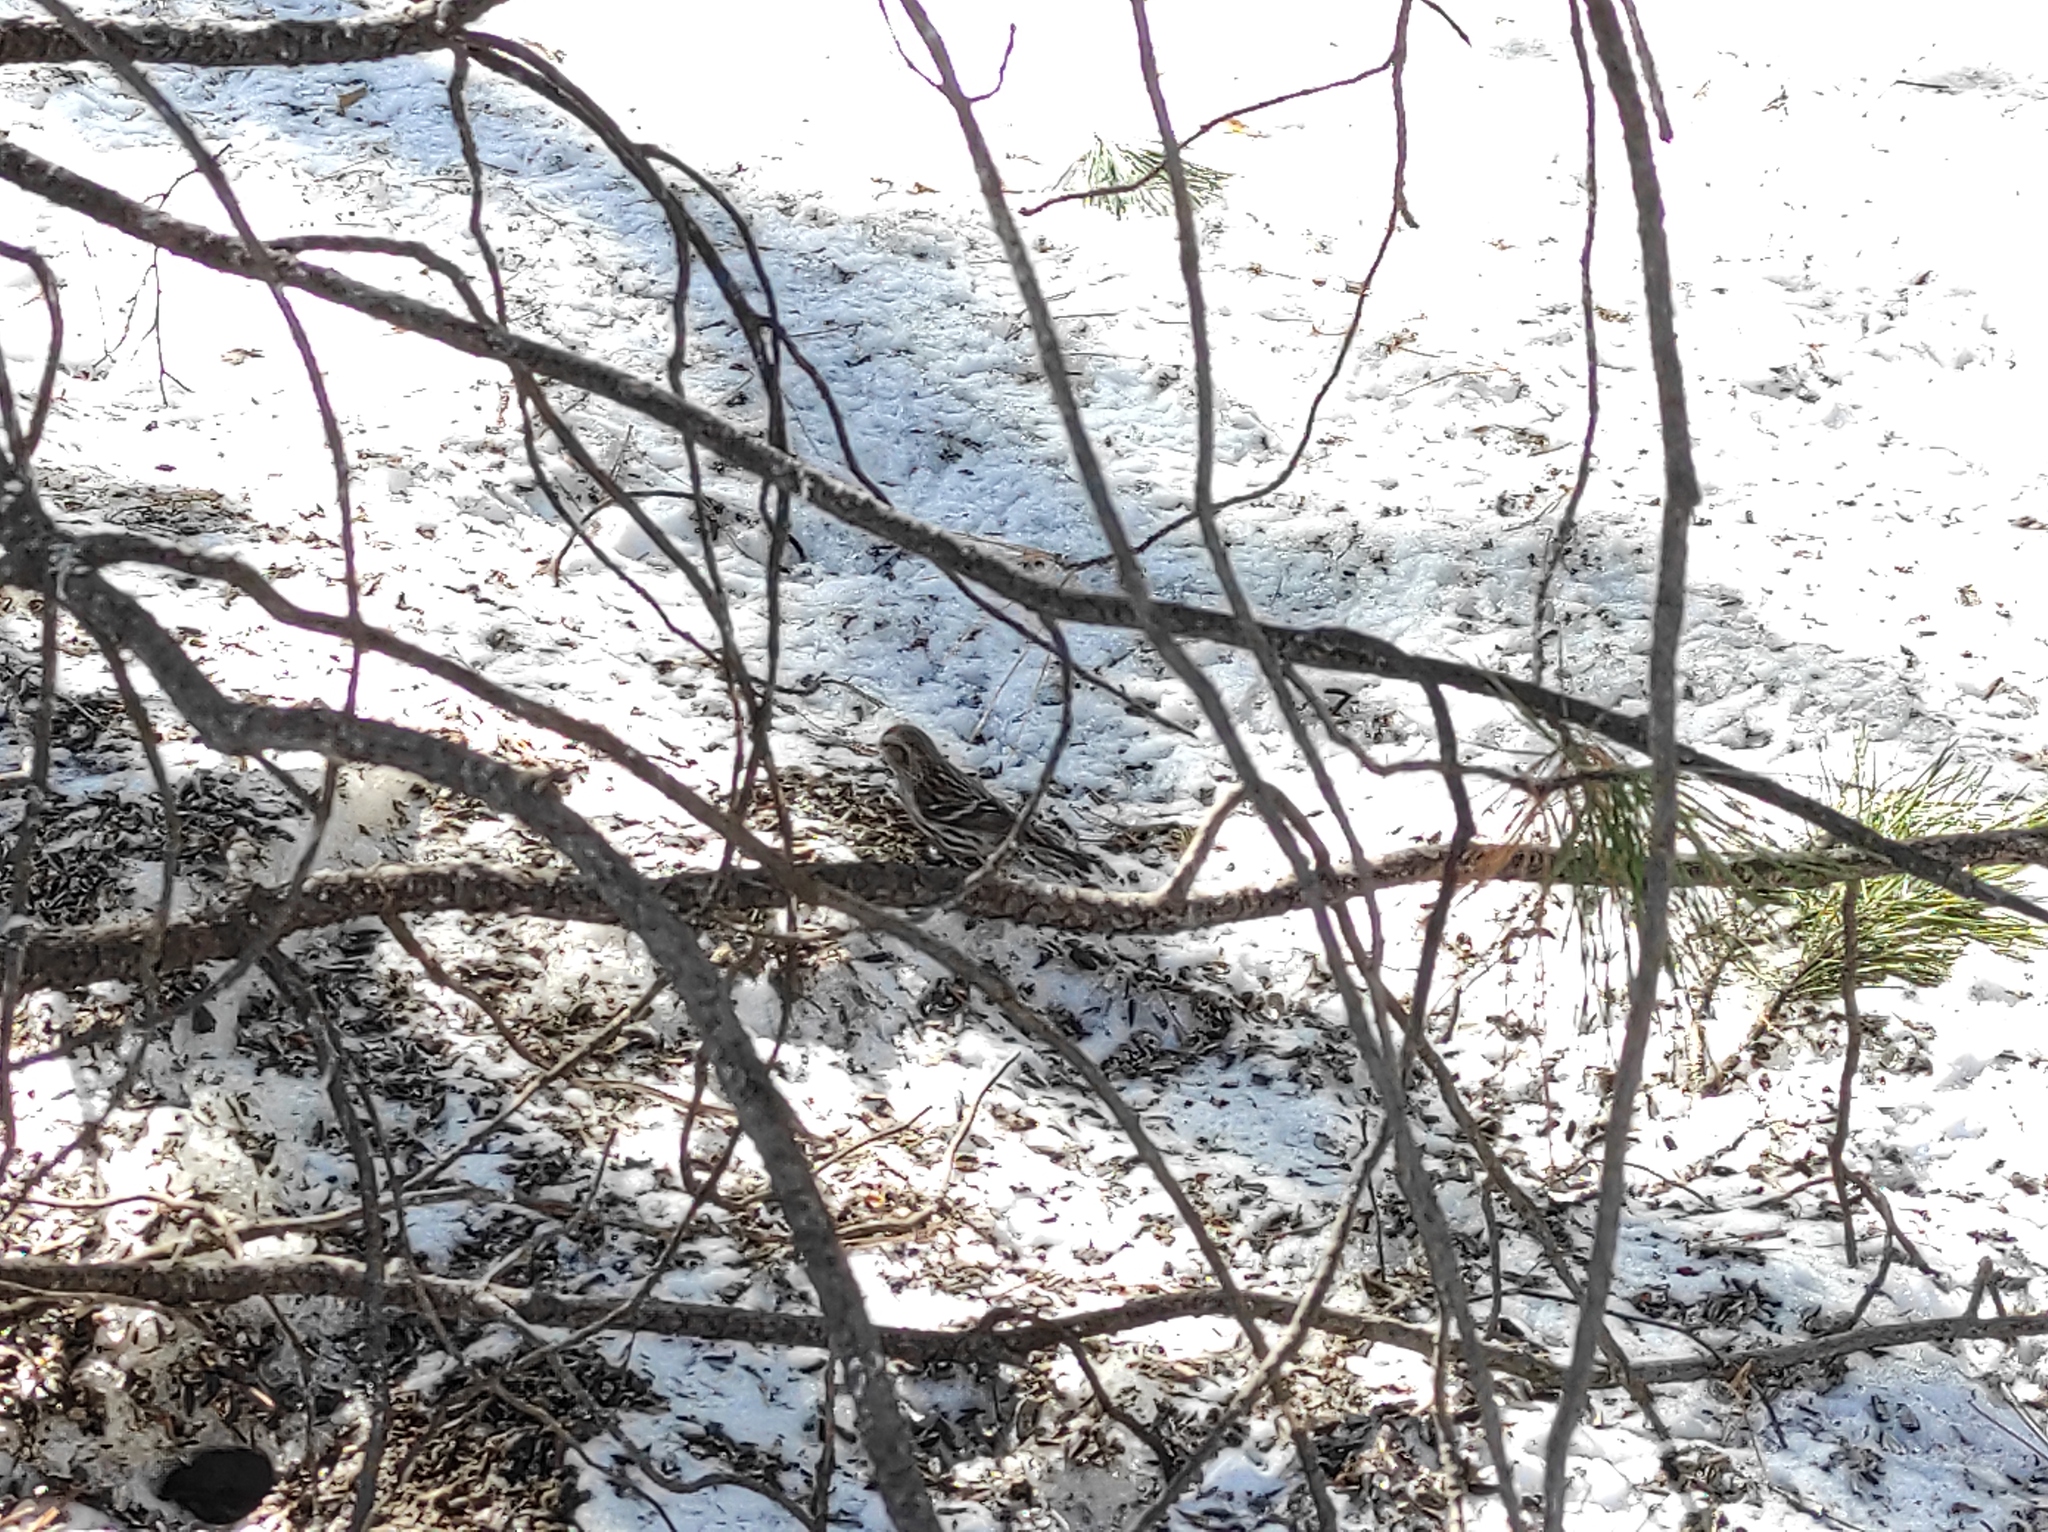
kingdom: Animalia
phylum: Chordata
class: Aves
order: Passeriformes
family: Fringillidae
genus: Acanthis
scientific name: Acanthis flammea
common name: Common redpoll
